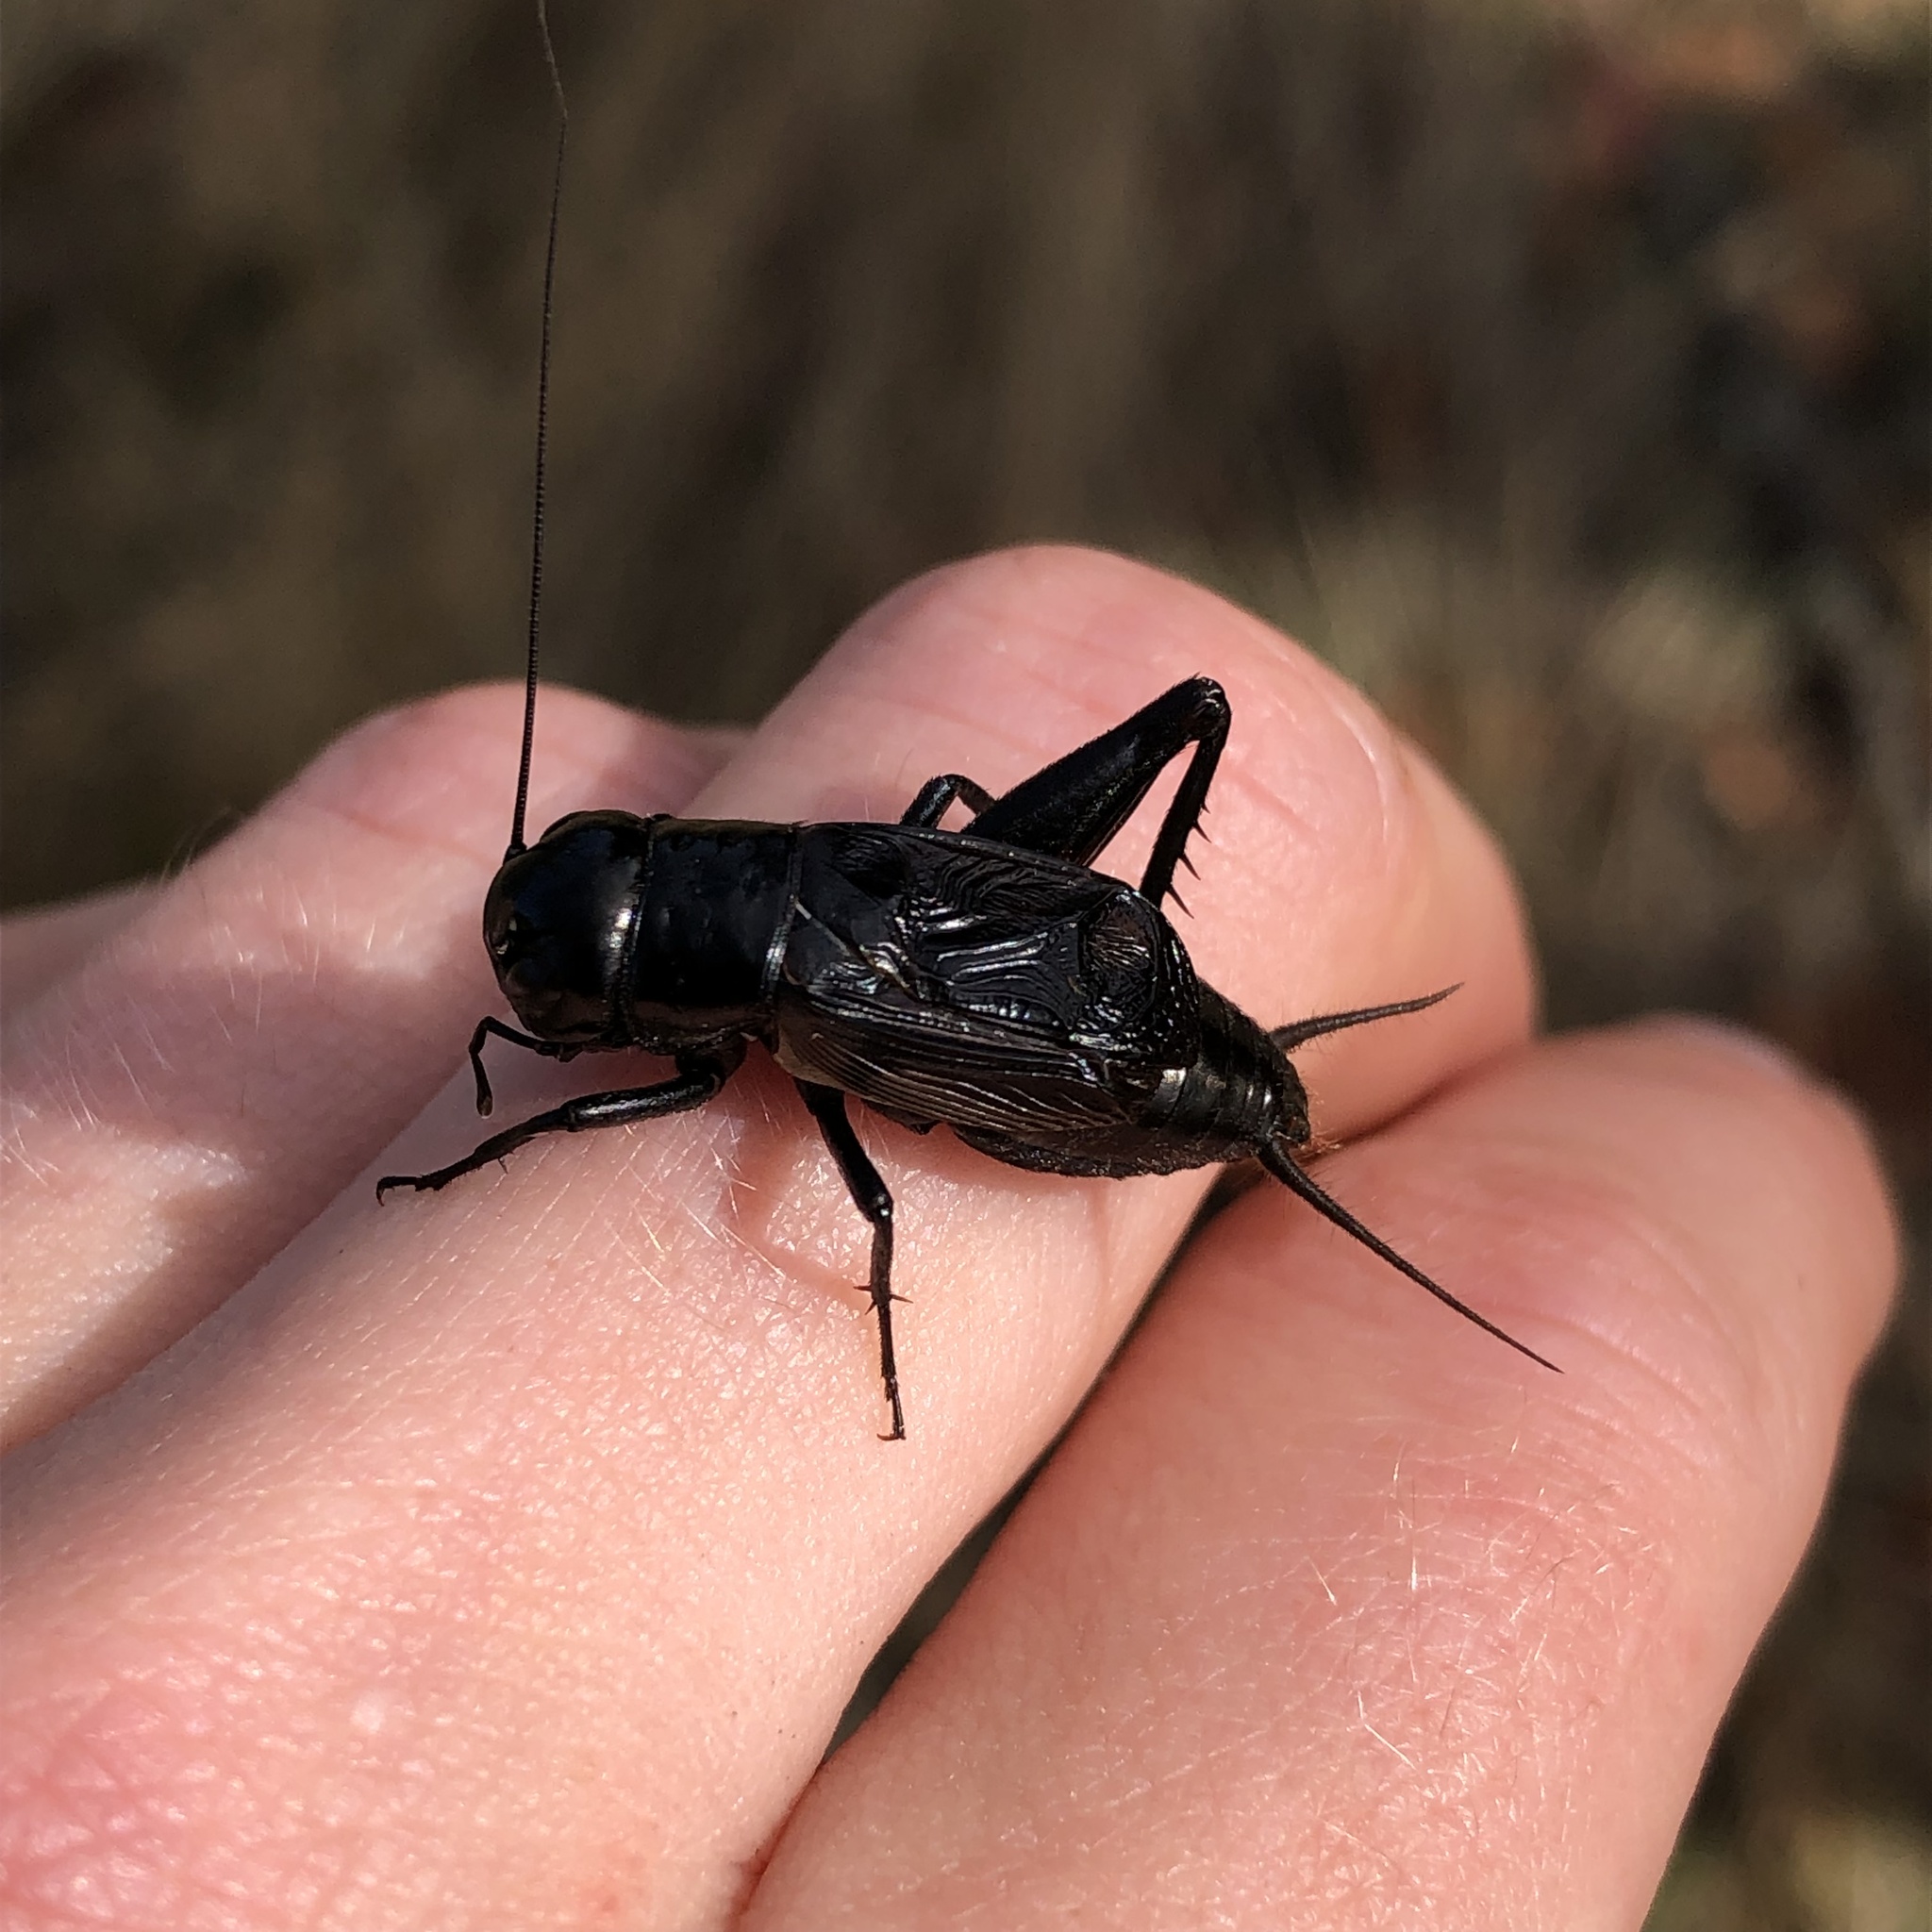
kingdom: Animalia
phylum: Arthropoda
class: Insecta
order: Orthoptera
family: Gryllidae
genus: Gryllus
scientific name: Gryllus pennsylvanicus
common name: Fall field cricket
